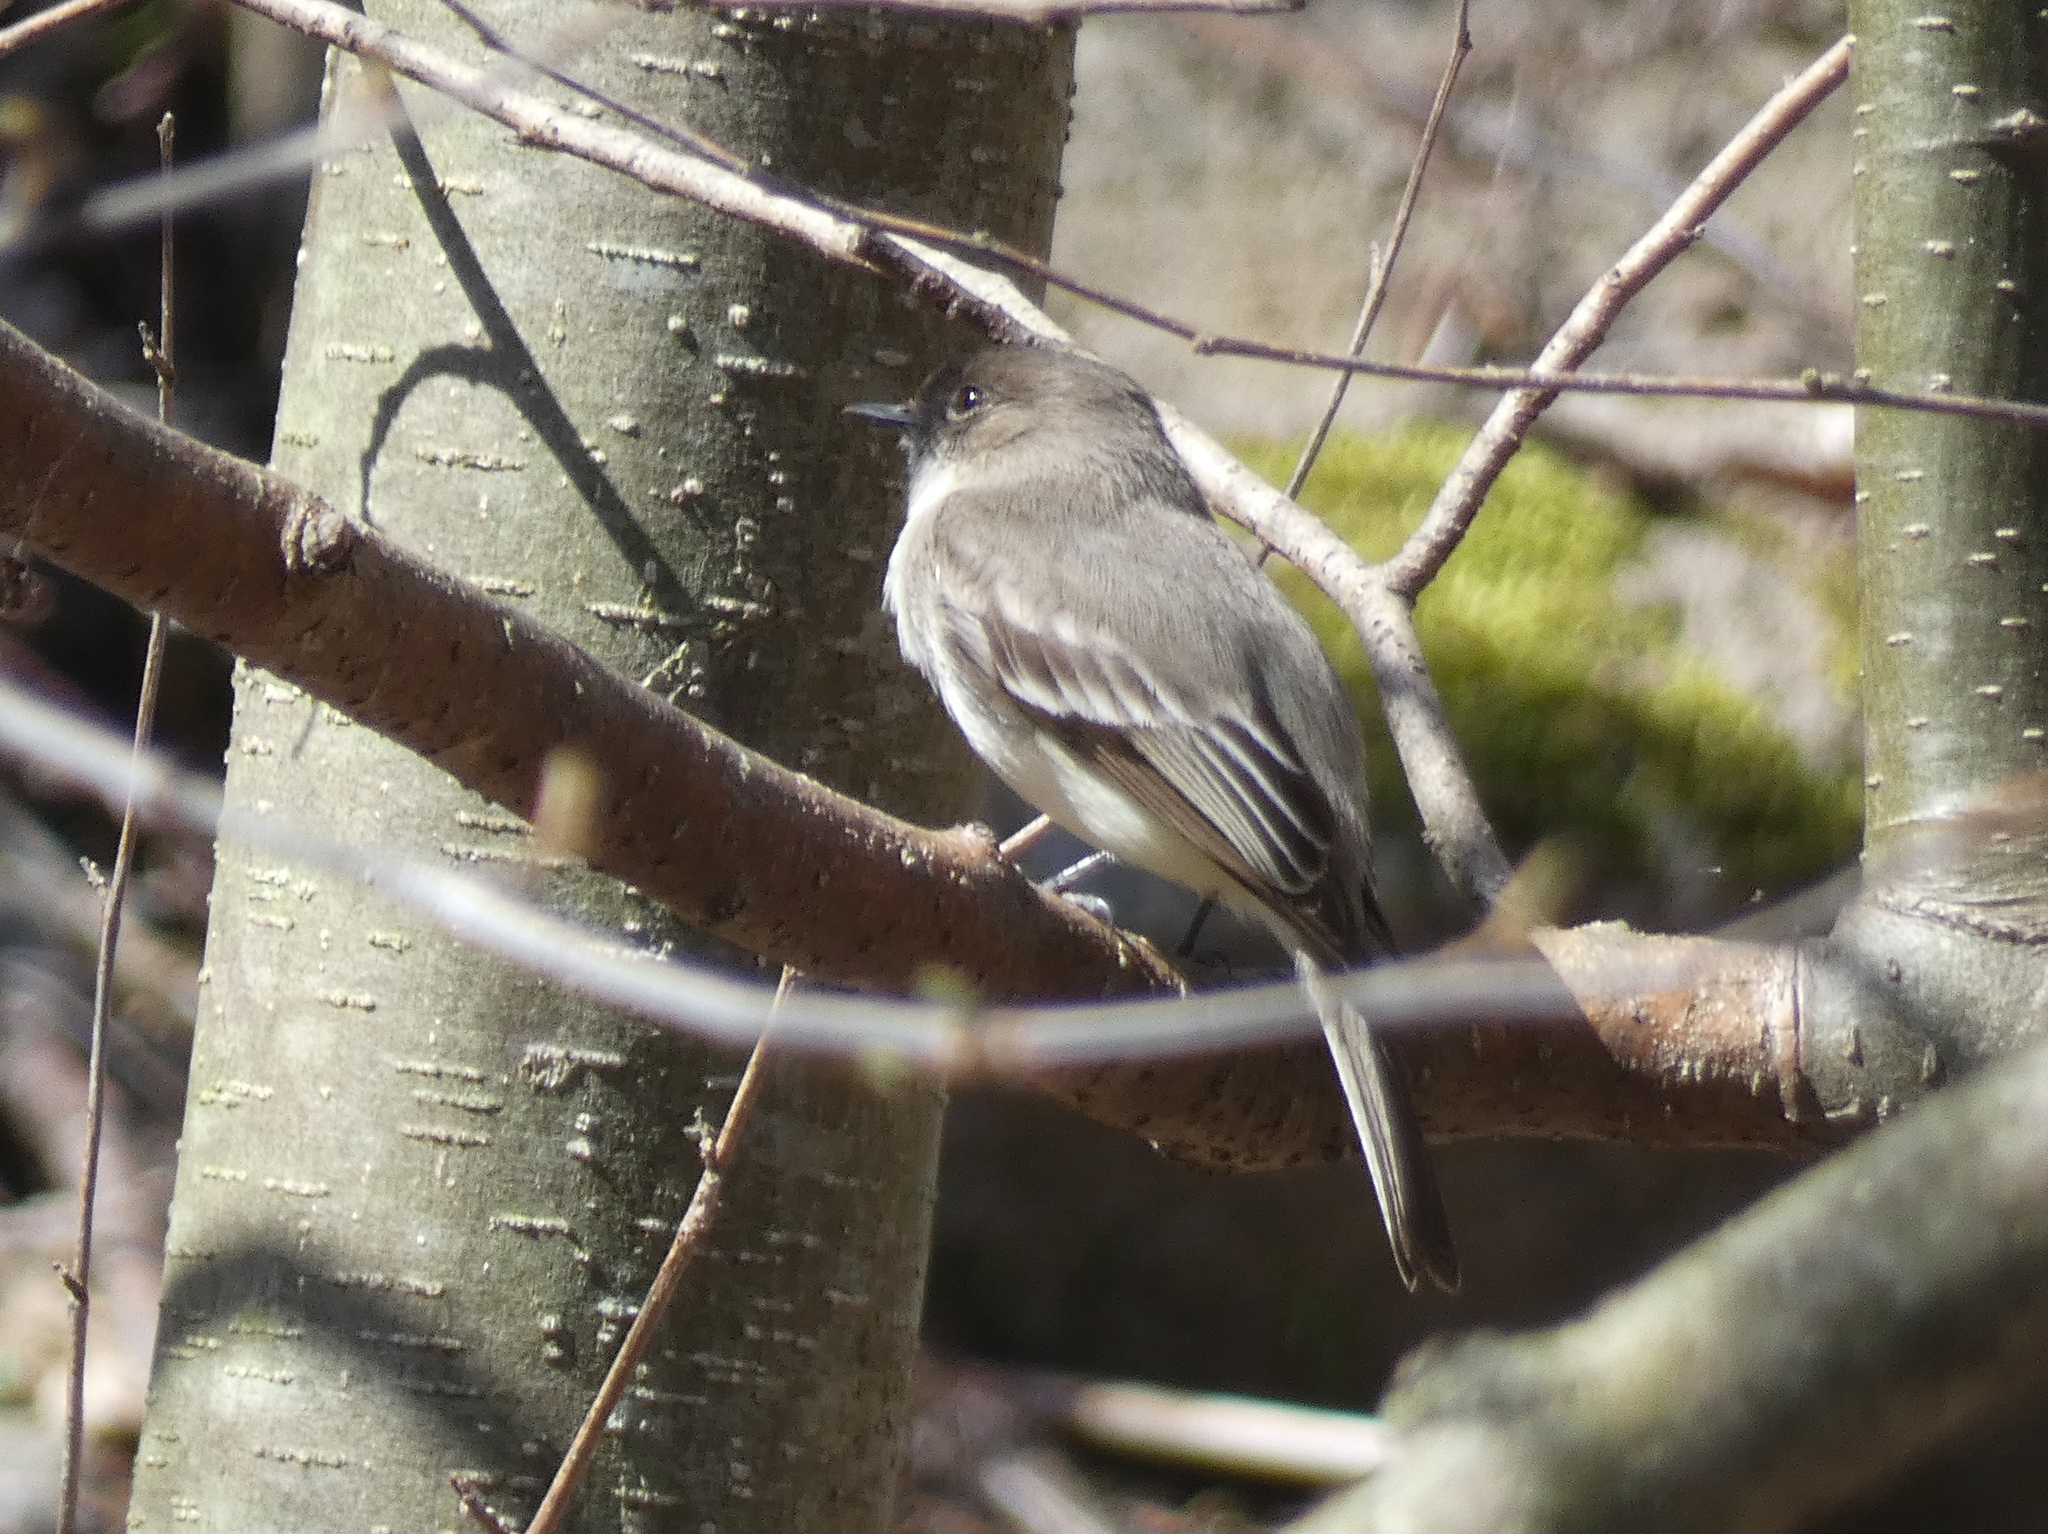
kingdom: Animalia
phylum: Chordata
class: Aves
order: Passeriformes
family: Tyrannidae
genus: Sayornis
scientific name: Sayornis phoebe
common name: Eastern phoebe
